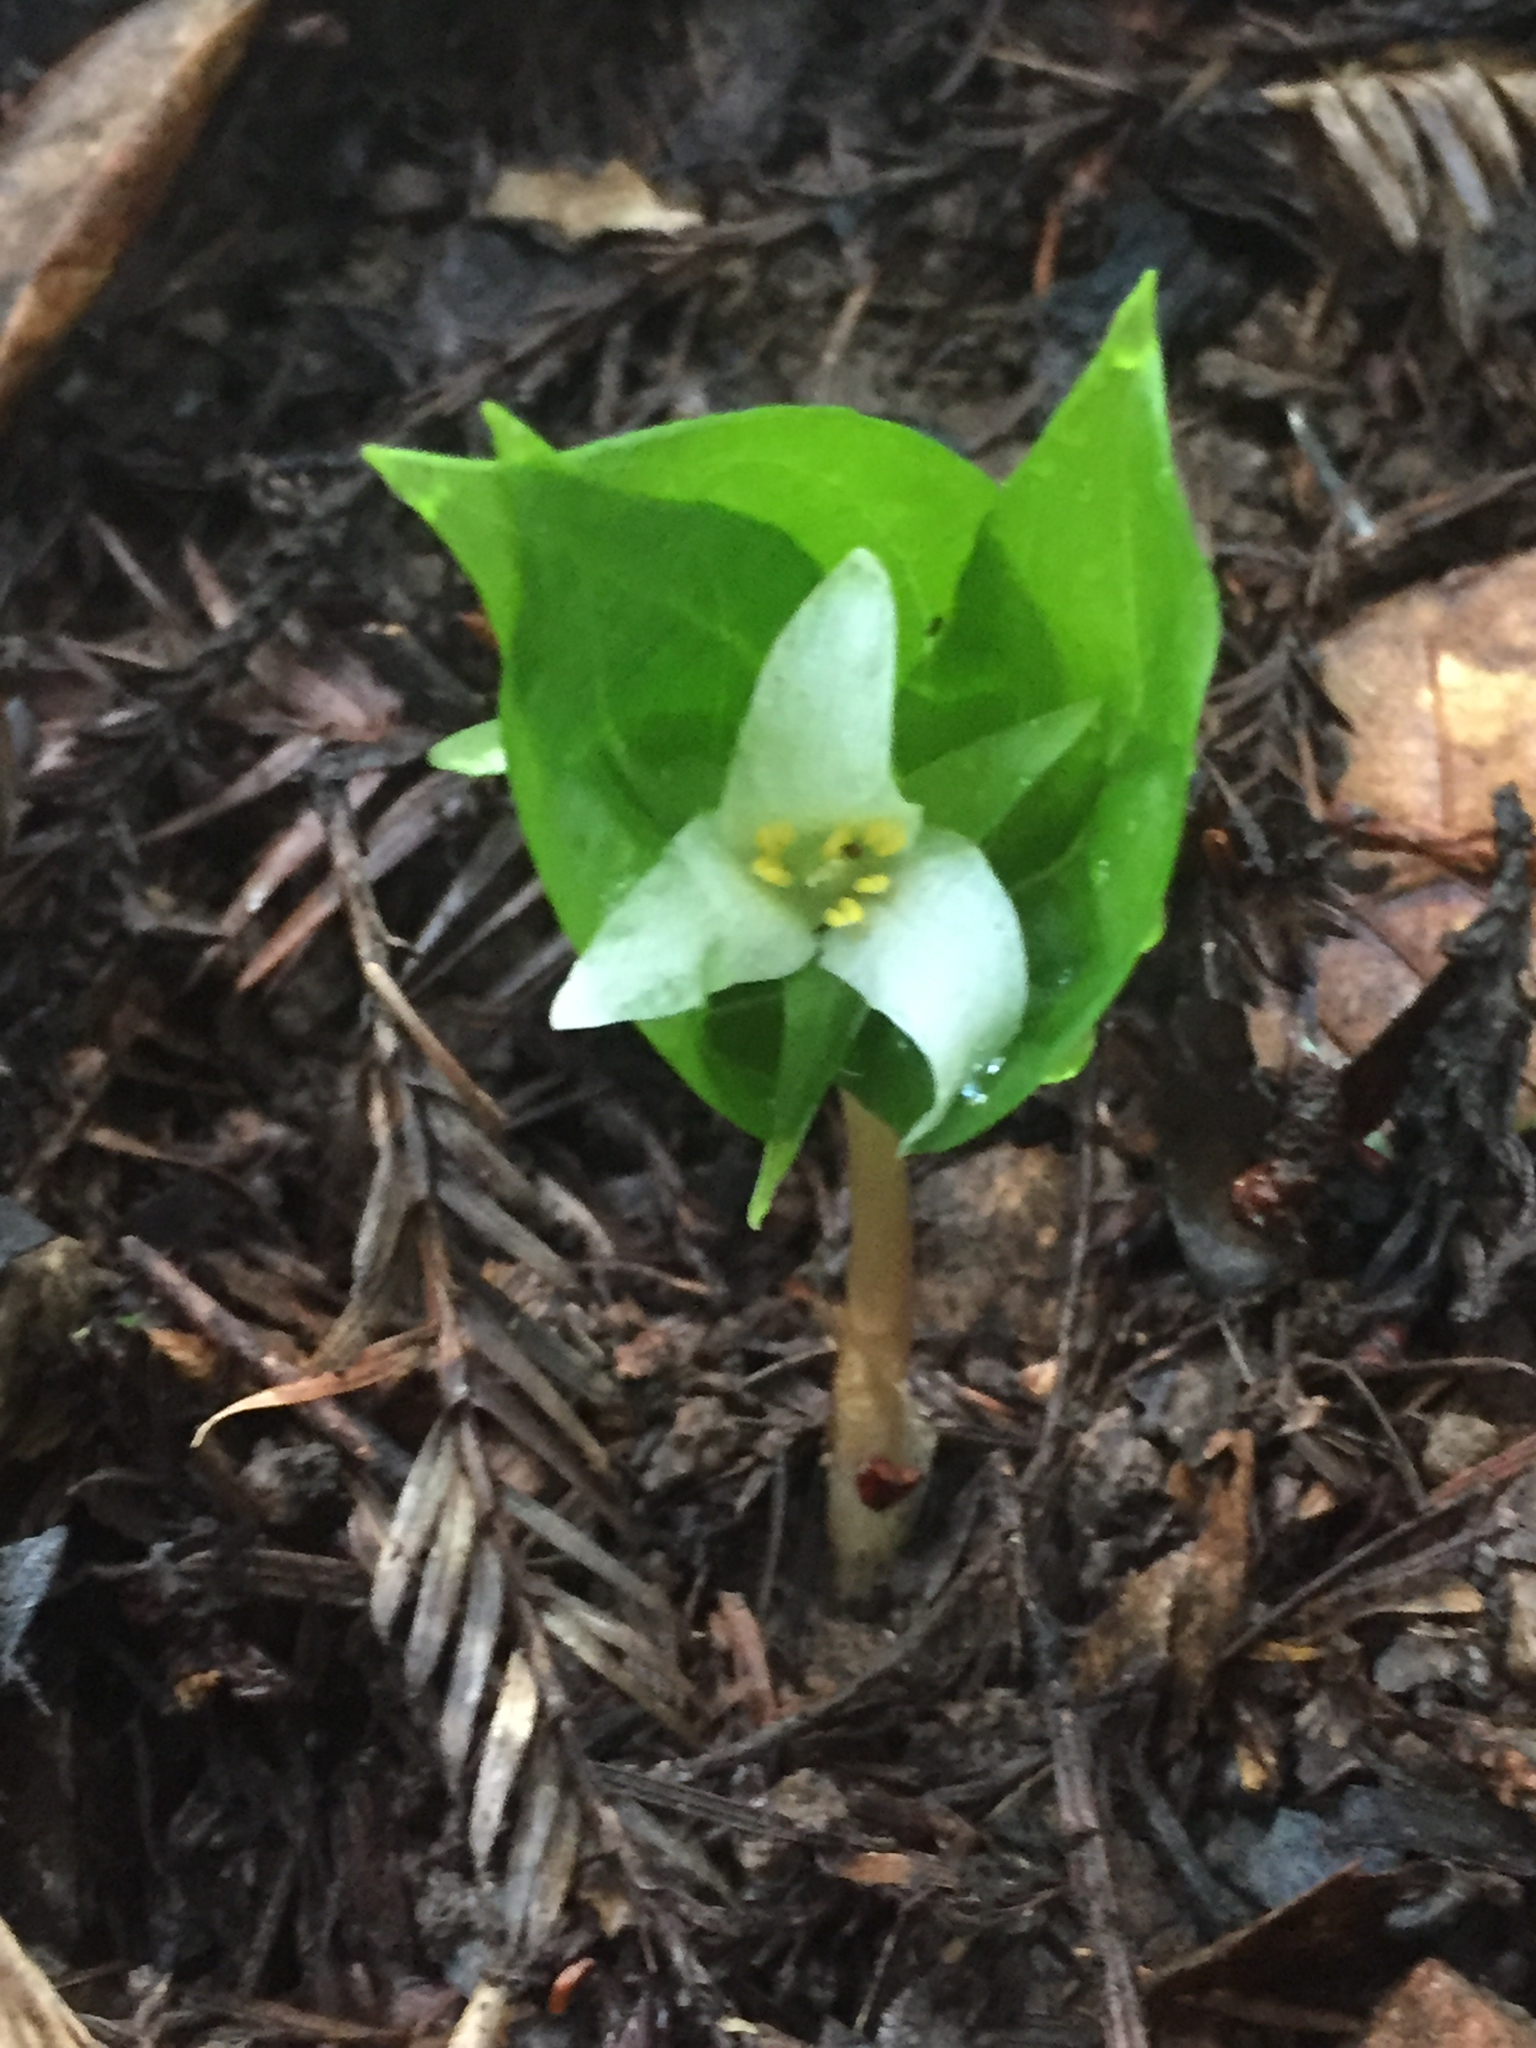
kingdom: Plantae
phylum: Tracheophyta
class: Liliopsida
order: Liliales
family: Melanthiaceae
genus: Trillium
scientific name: Trillium ovatum
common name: Pacific trillium
